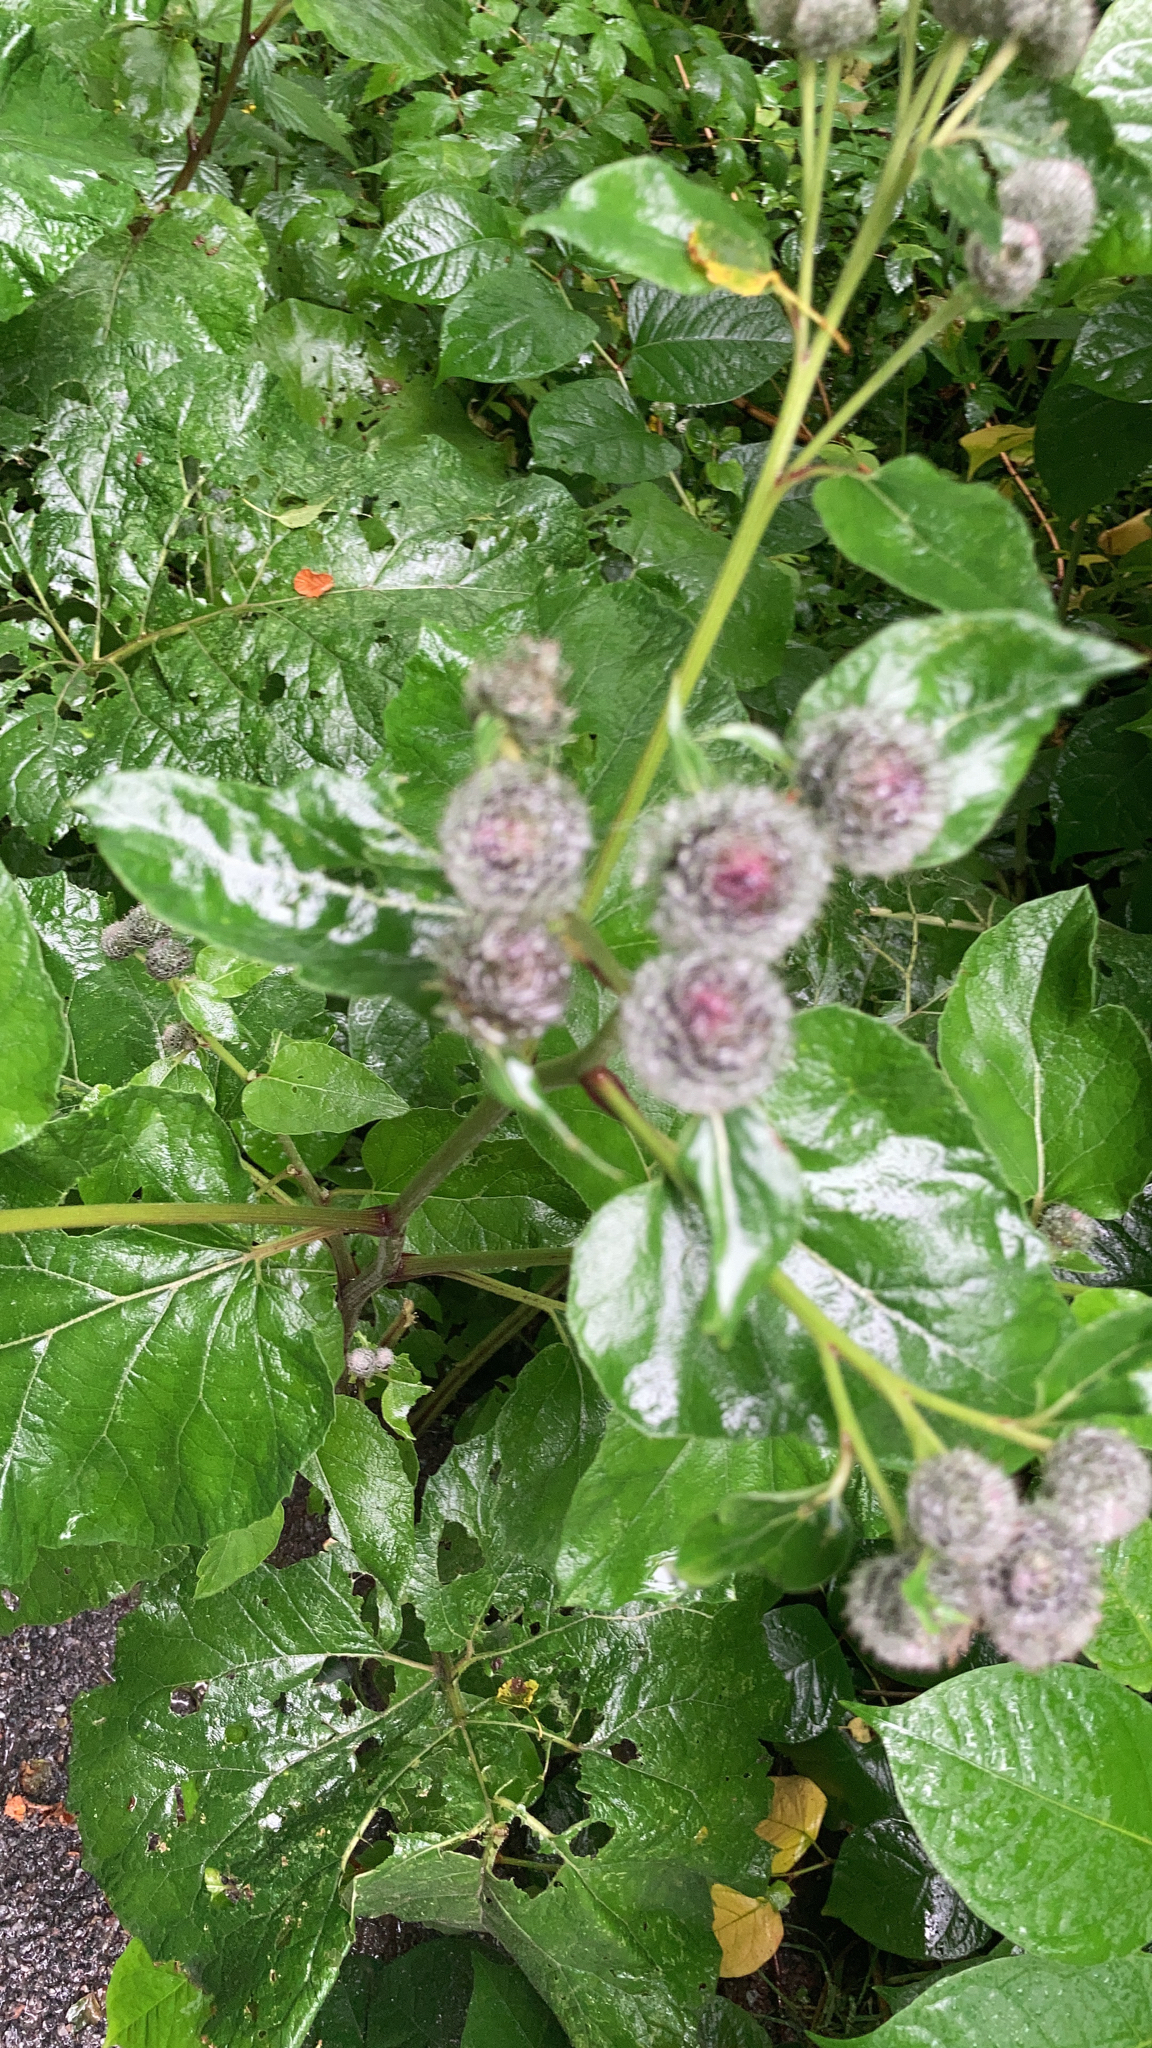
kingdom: Plantae
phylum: Tracheophyta
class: Magnoliopsida
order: Asterales
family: Asteraceae
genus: Arctium
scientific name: Arctium tomentosum
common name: Woolly burdock
